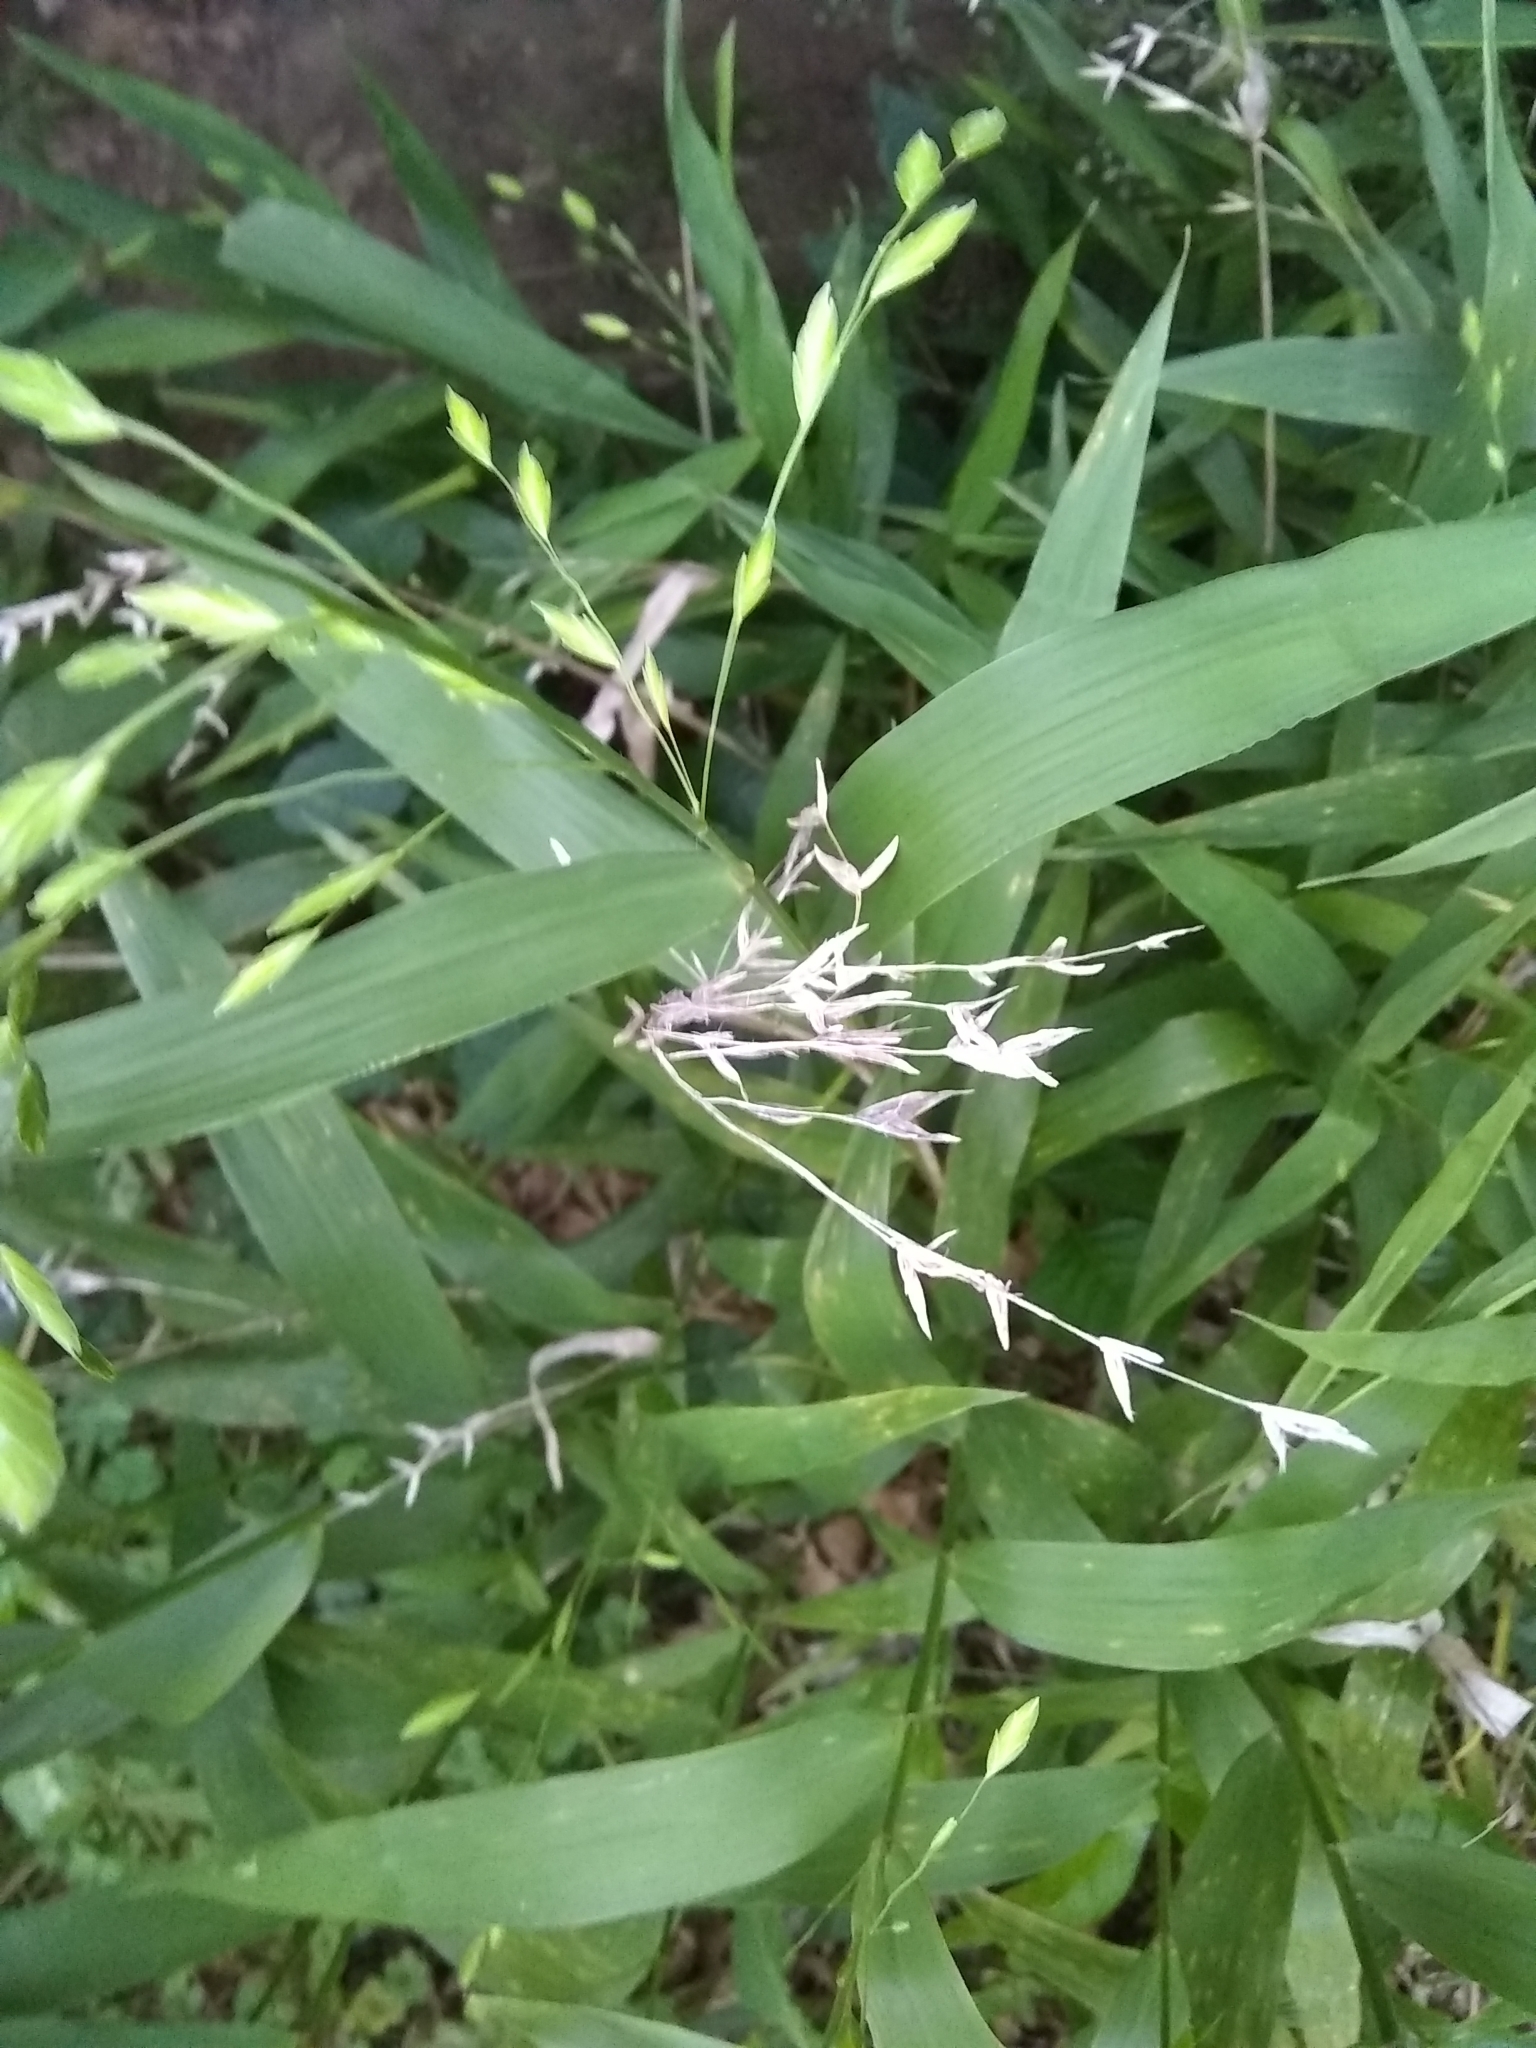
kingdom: Plantae
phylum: Tracheophyta
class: Liliopsida
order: Poales
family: Poaceae
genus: Chasmanthium
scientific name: Chasmanthium latifolium
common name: Broad-leaved chasmanthium
